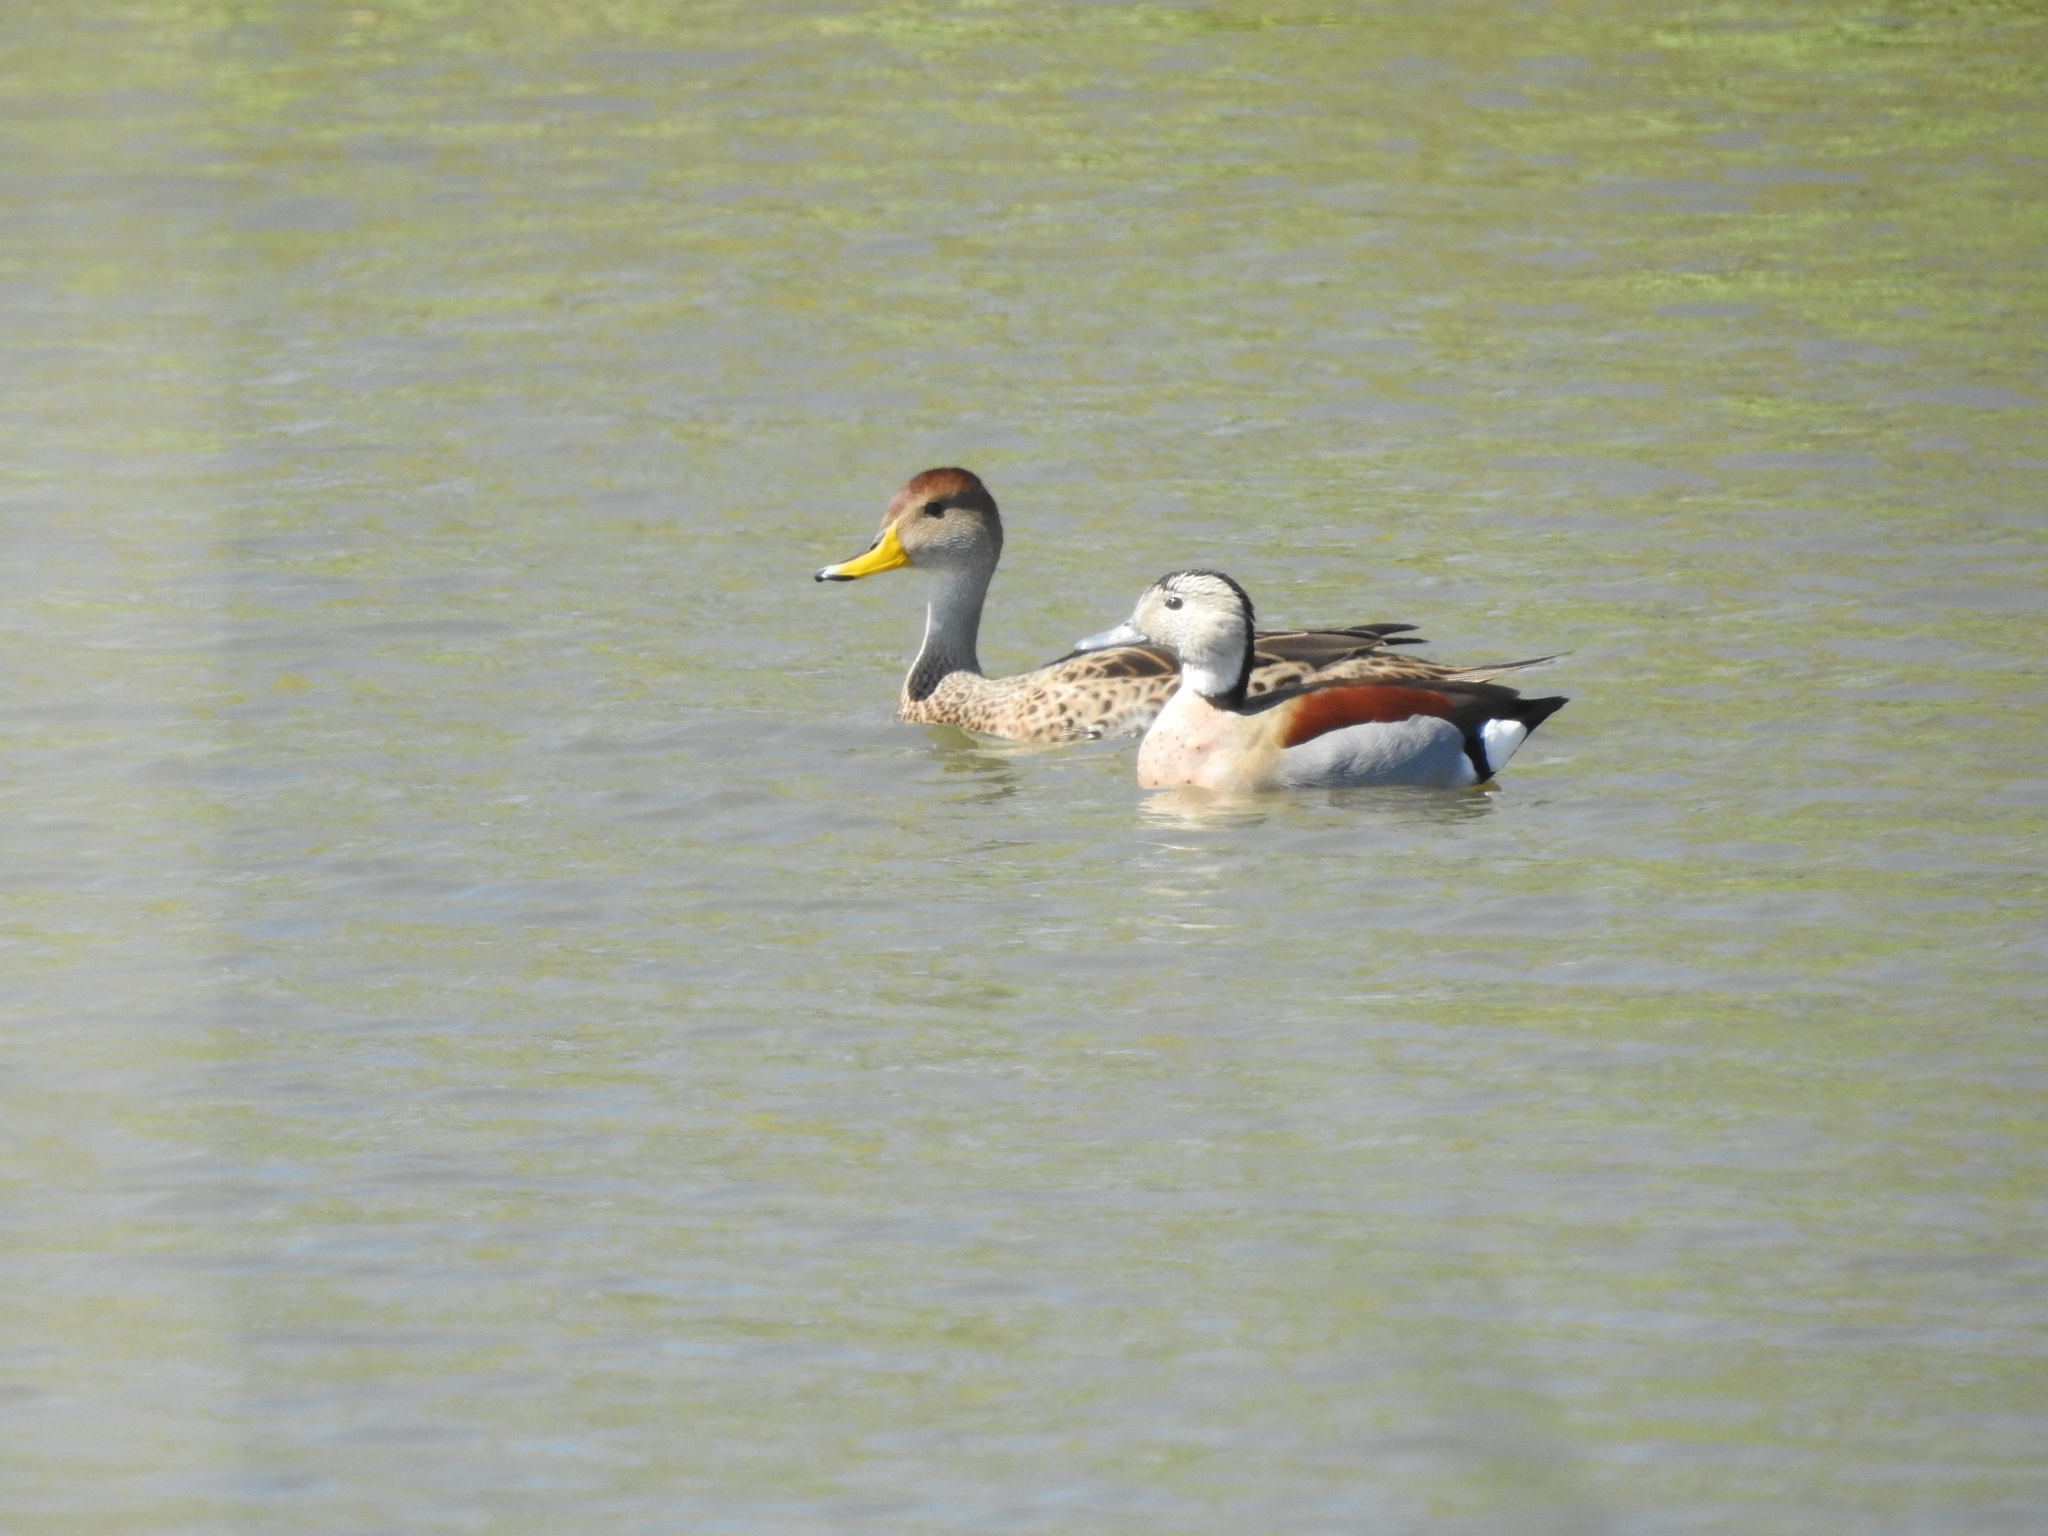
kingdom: Animalia
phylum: Chordata
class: Aves
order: Anseriformes
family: Anatidae
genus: Callonetta
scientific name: Callonetta leucophrys
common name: Ringed teal
